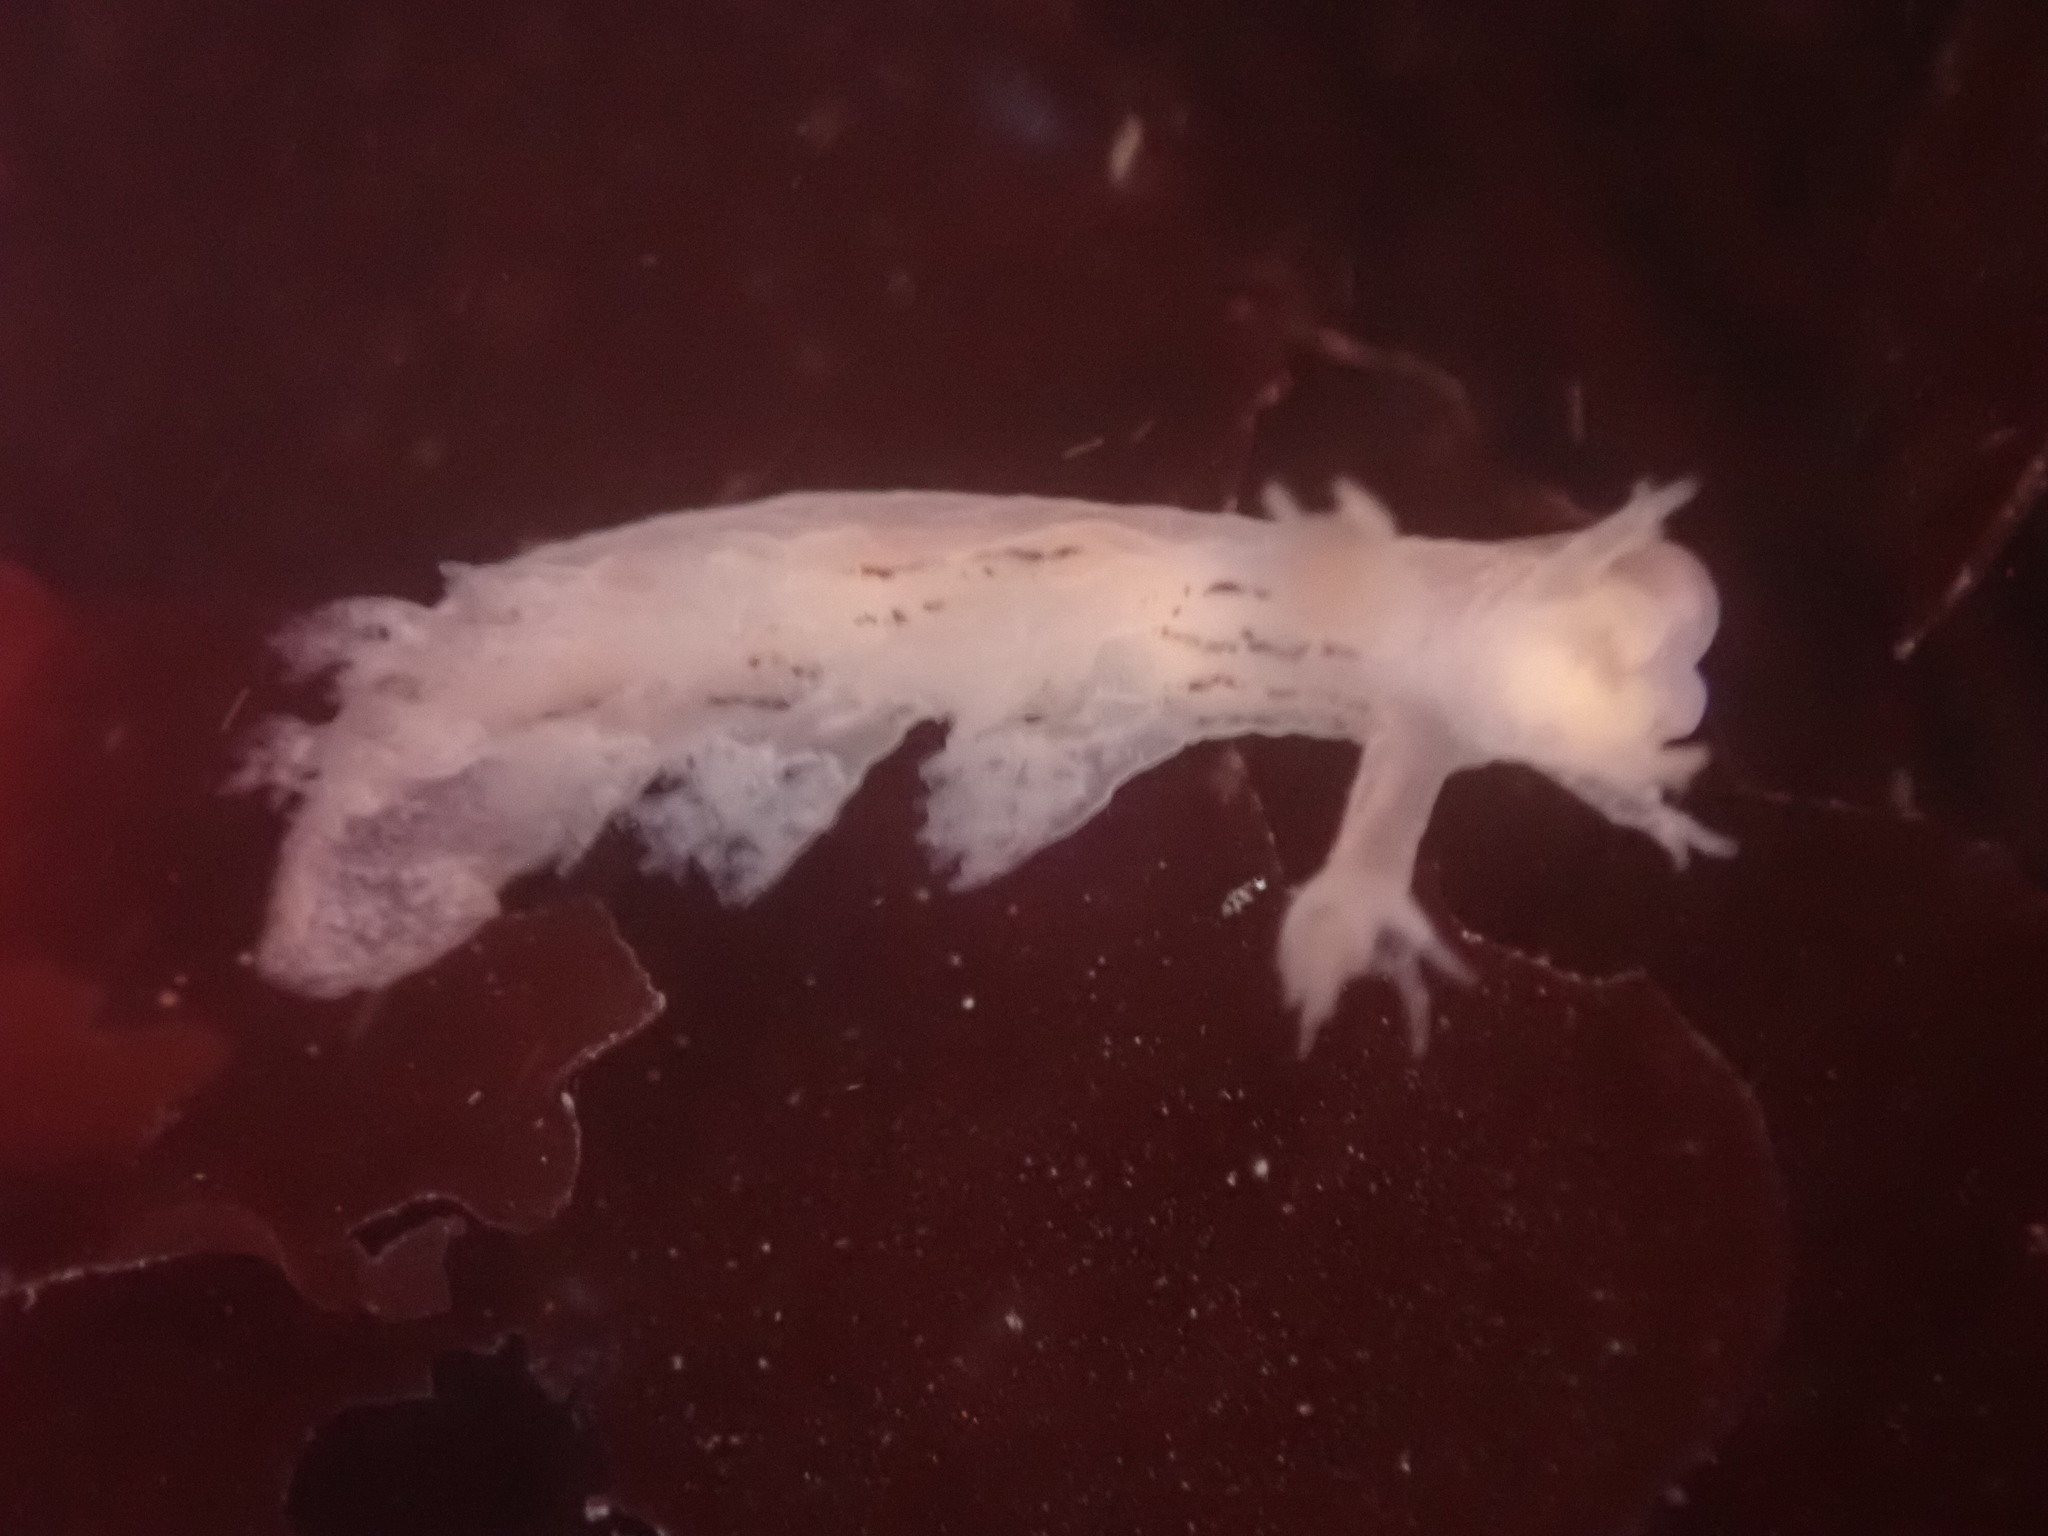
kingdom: Animalia
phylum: Mollusca
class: Gastropoda
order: Nudibranchia
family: Dendronotidae
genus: Dendronotus
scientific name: Dendronotus subramosus
